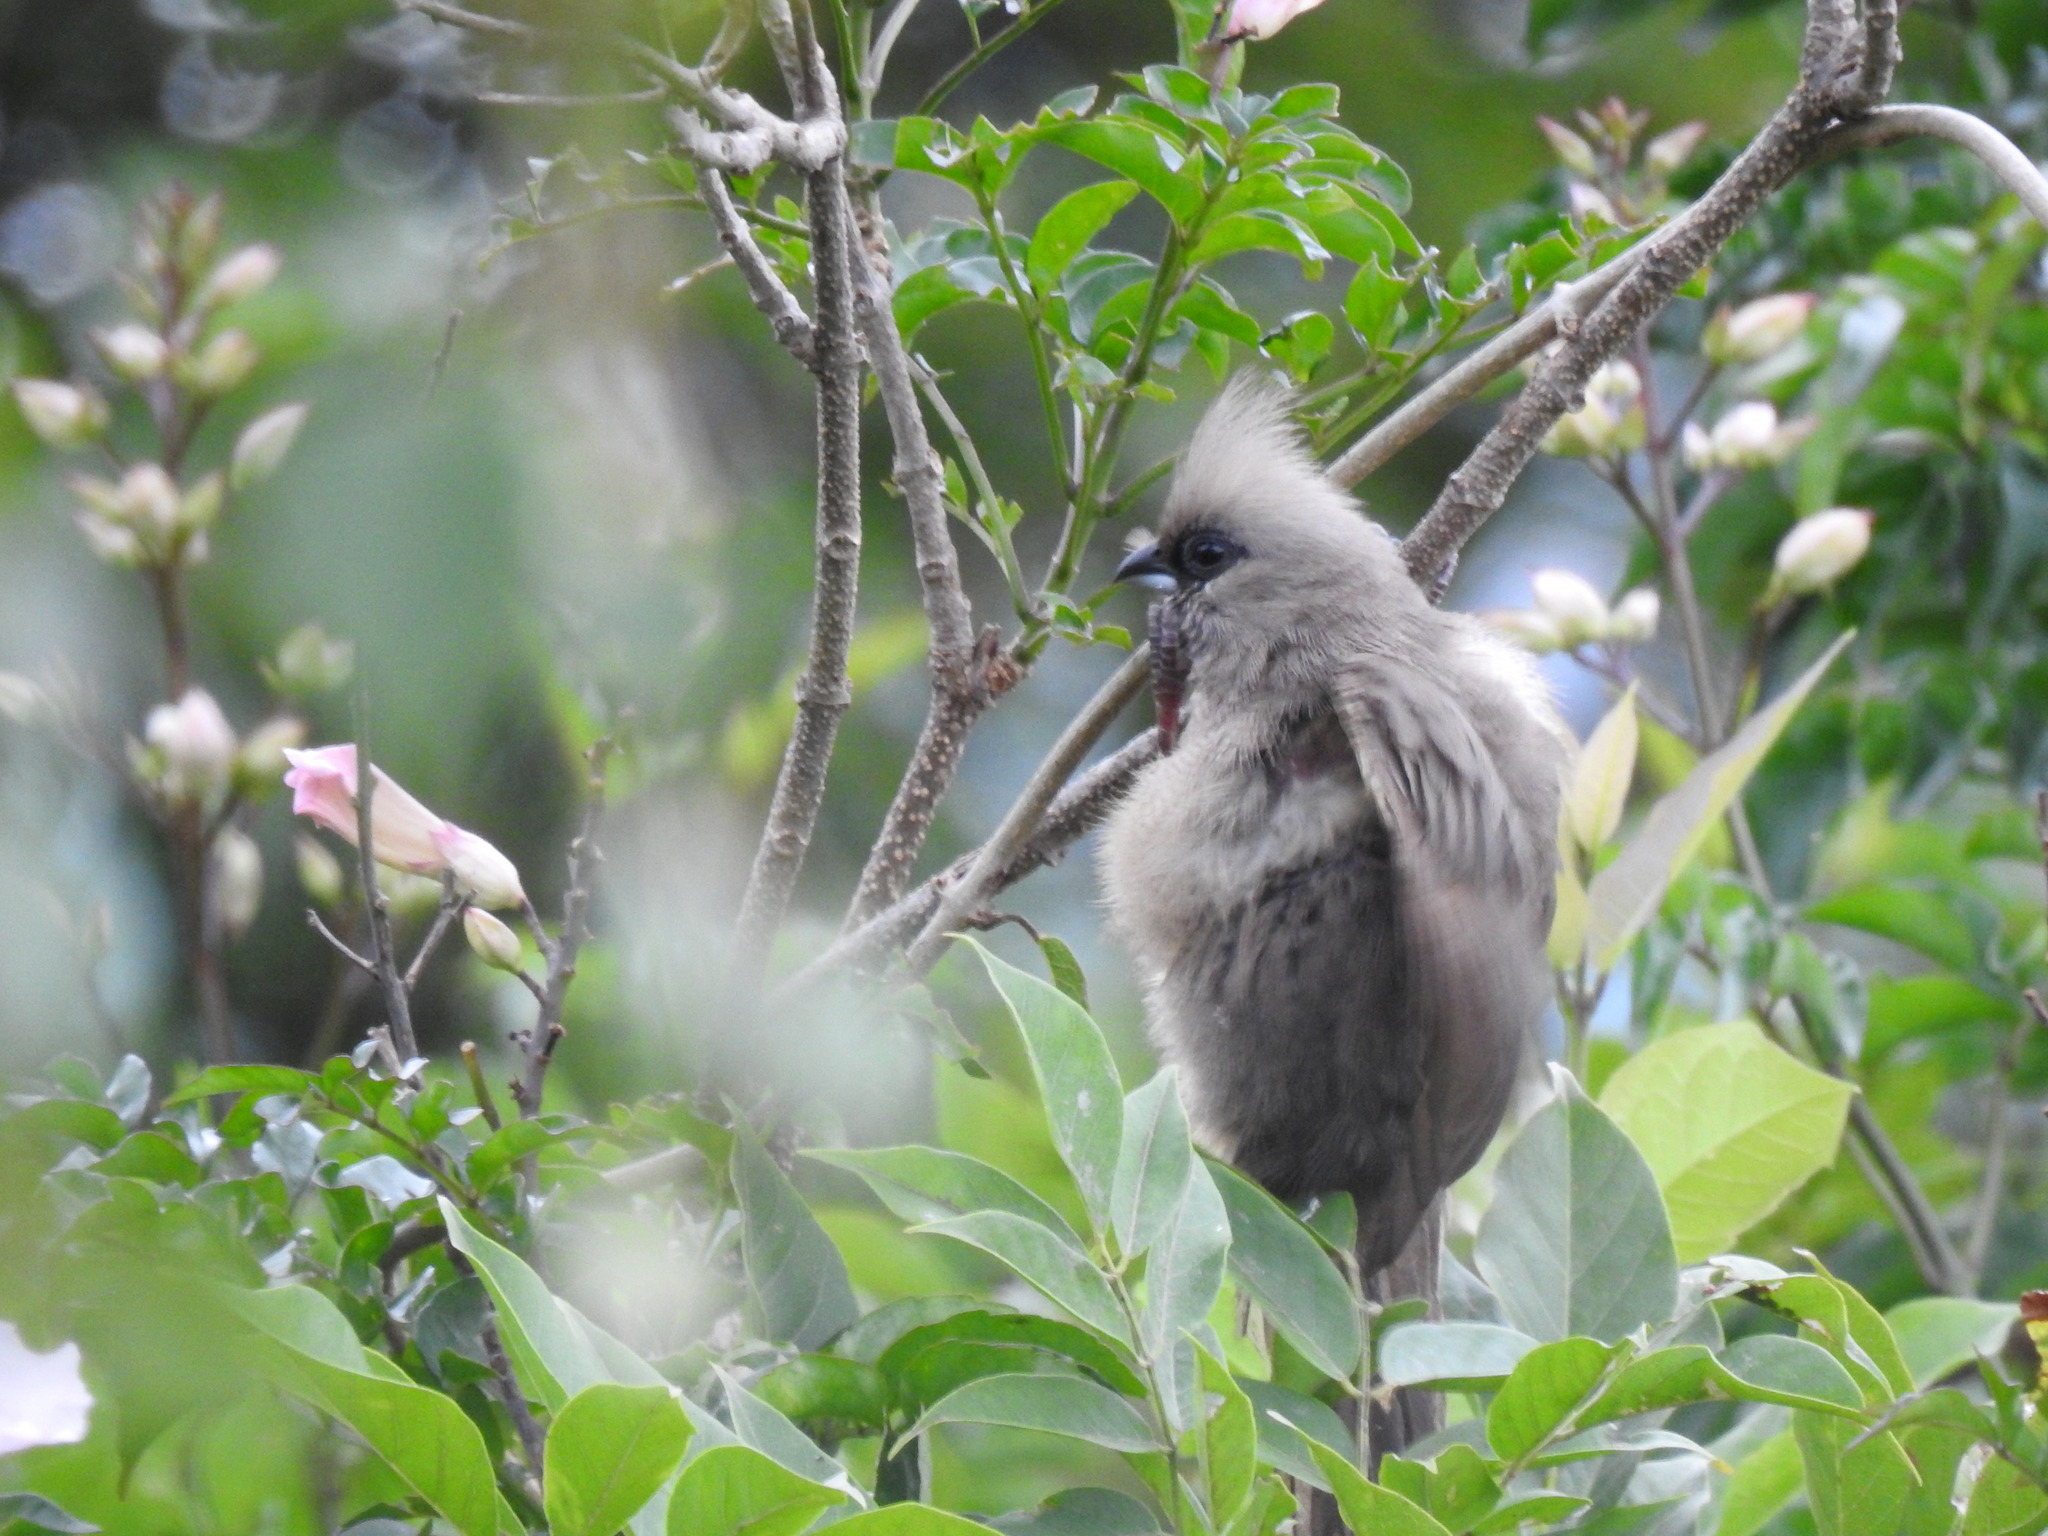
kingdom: Animalia
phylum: Chordata
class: Aves
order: Coliiformes
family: Coliidae
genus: Colius
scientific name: Colius striatus
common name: Speckled mousebird
